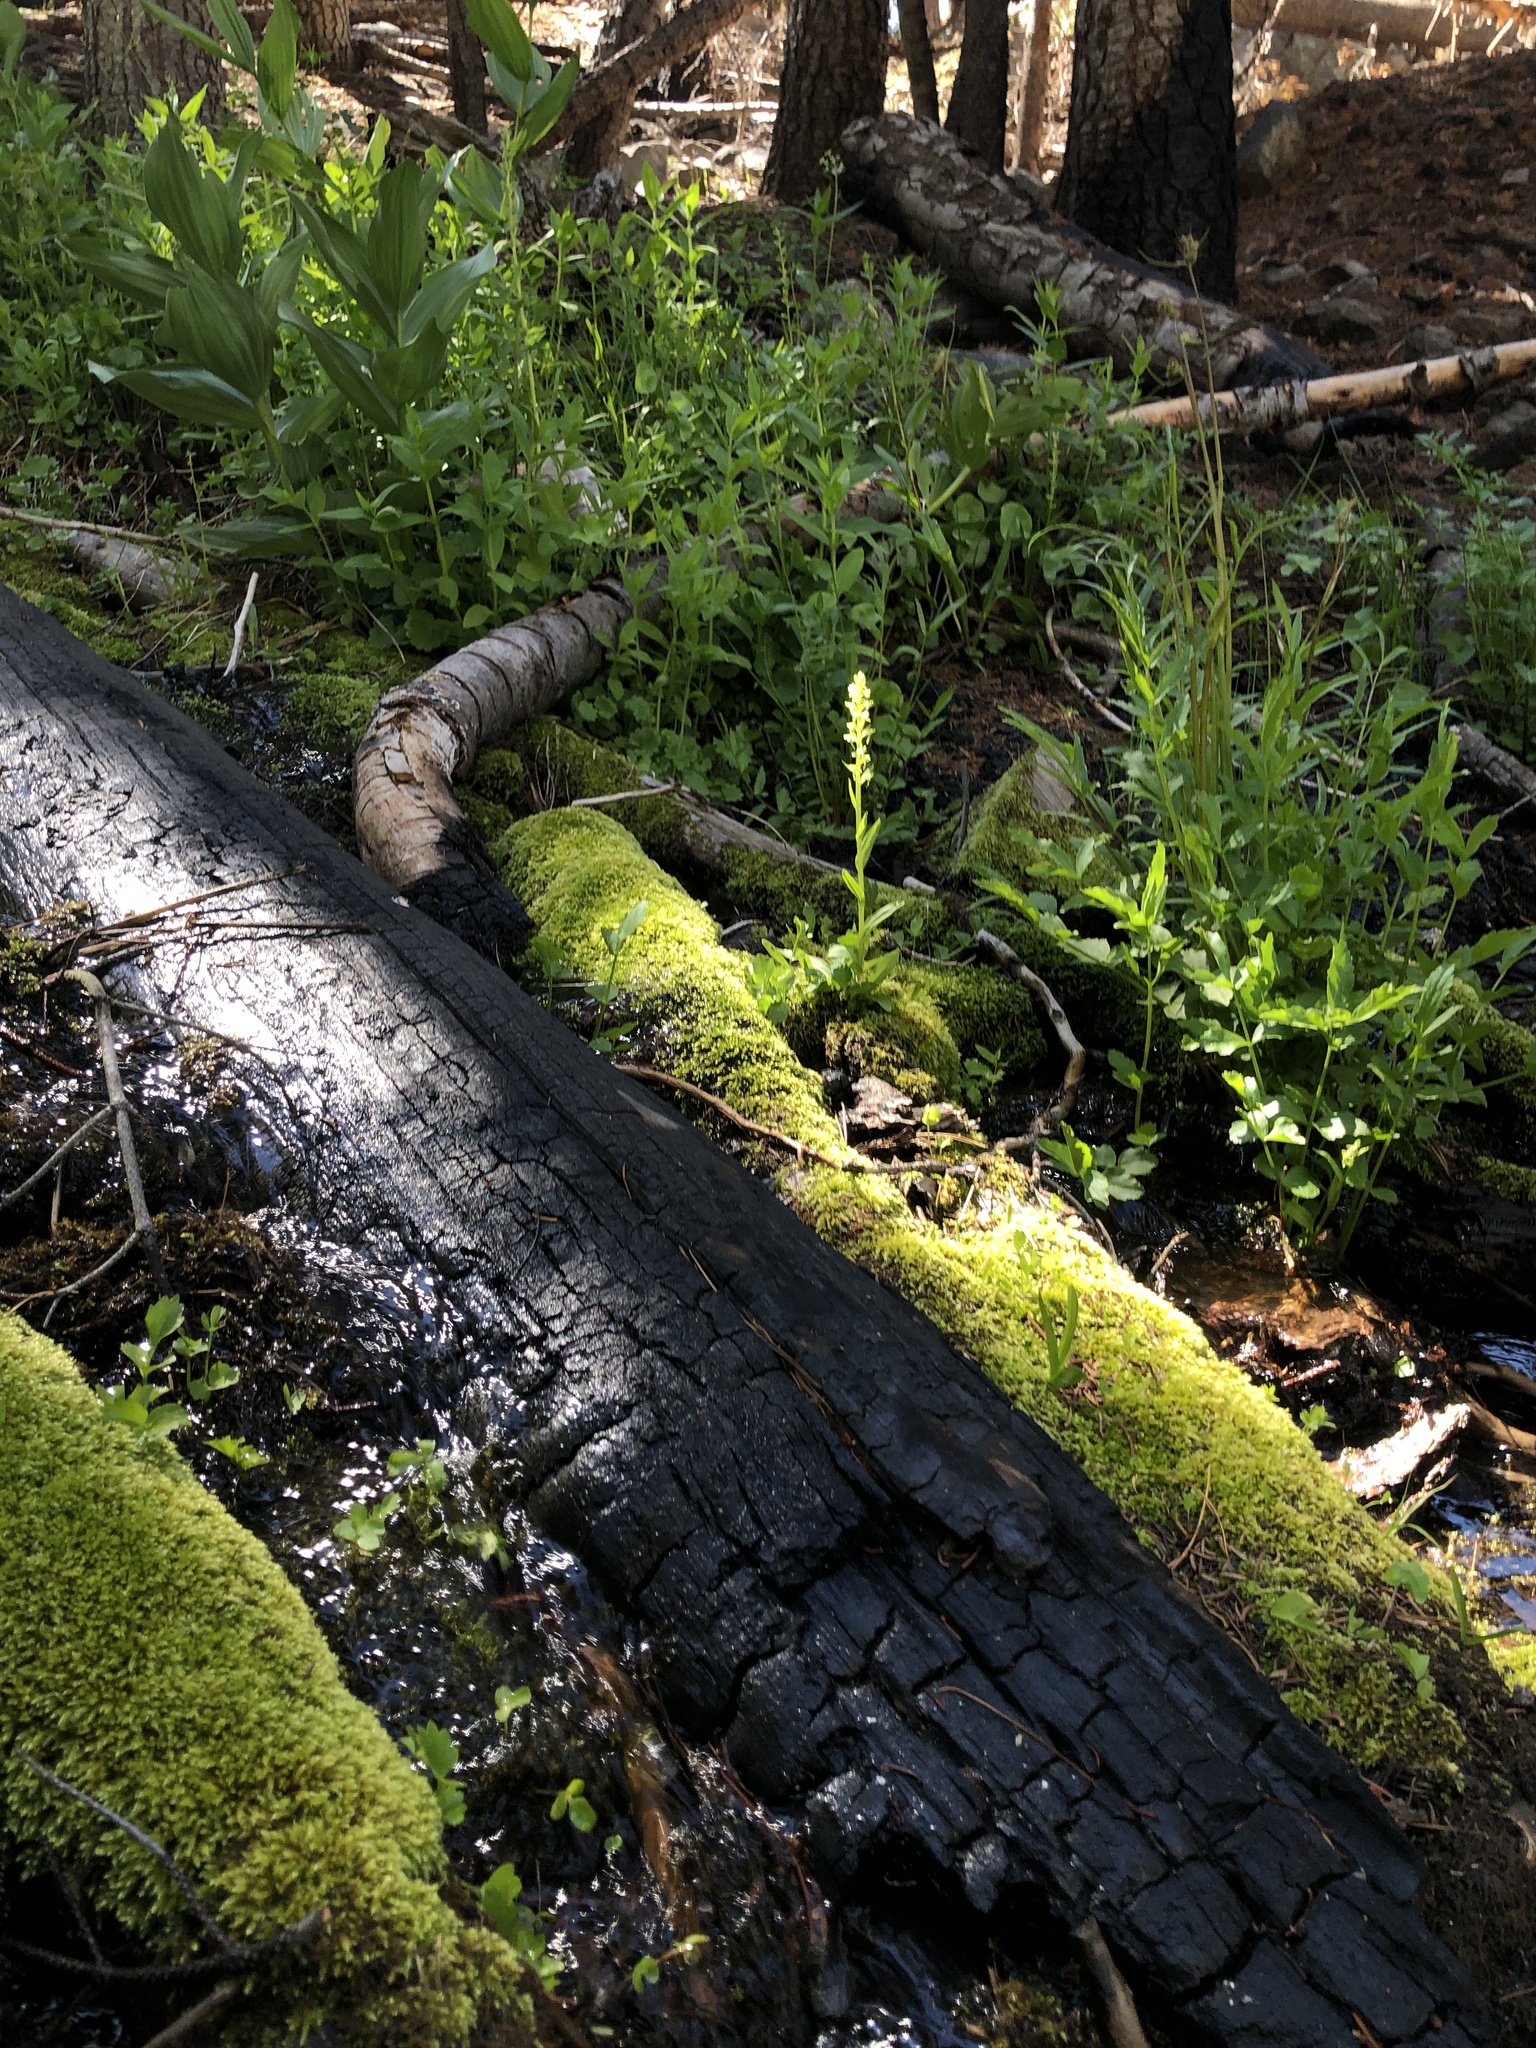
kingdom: Plantae
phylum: Tracheophyta
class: Liliopsida
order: Asparagales
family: Orchidaceae
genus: Platanthera
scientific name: Platanthera sparsiflora
